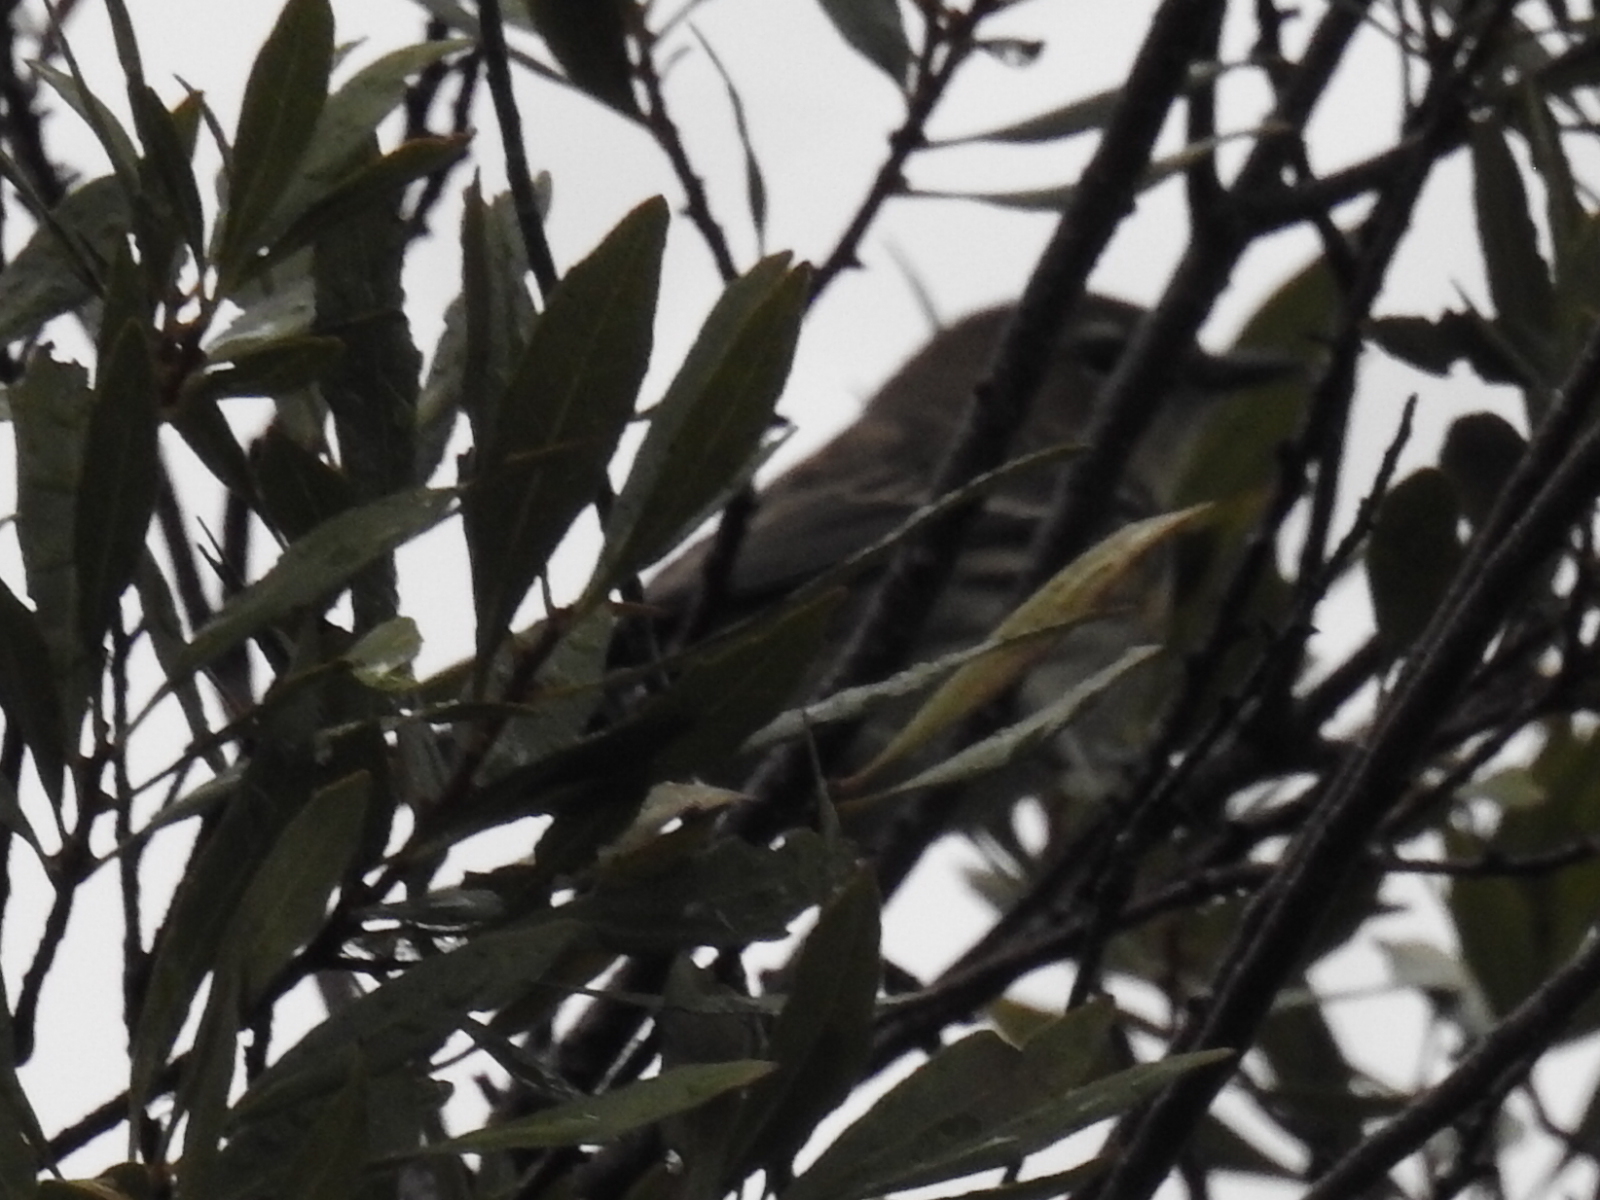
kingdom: Animalia
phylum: Chordata
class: Aves
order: Passeriformes
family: Parulidae
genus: Setophaga
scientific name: Setophaga coronata
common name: Myrtle warbler
